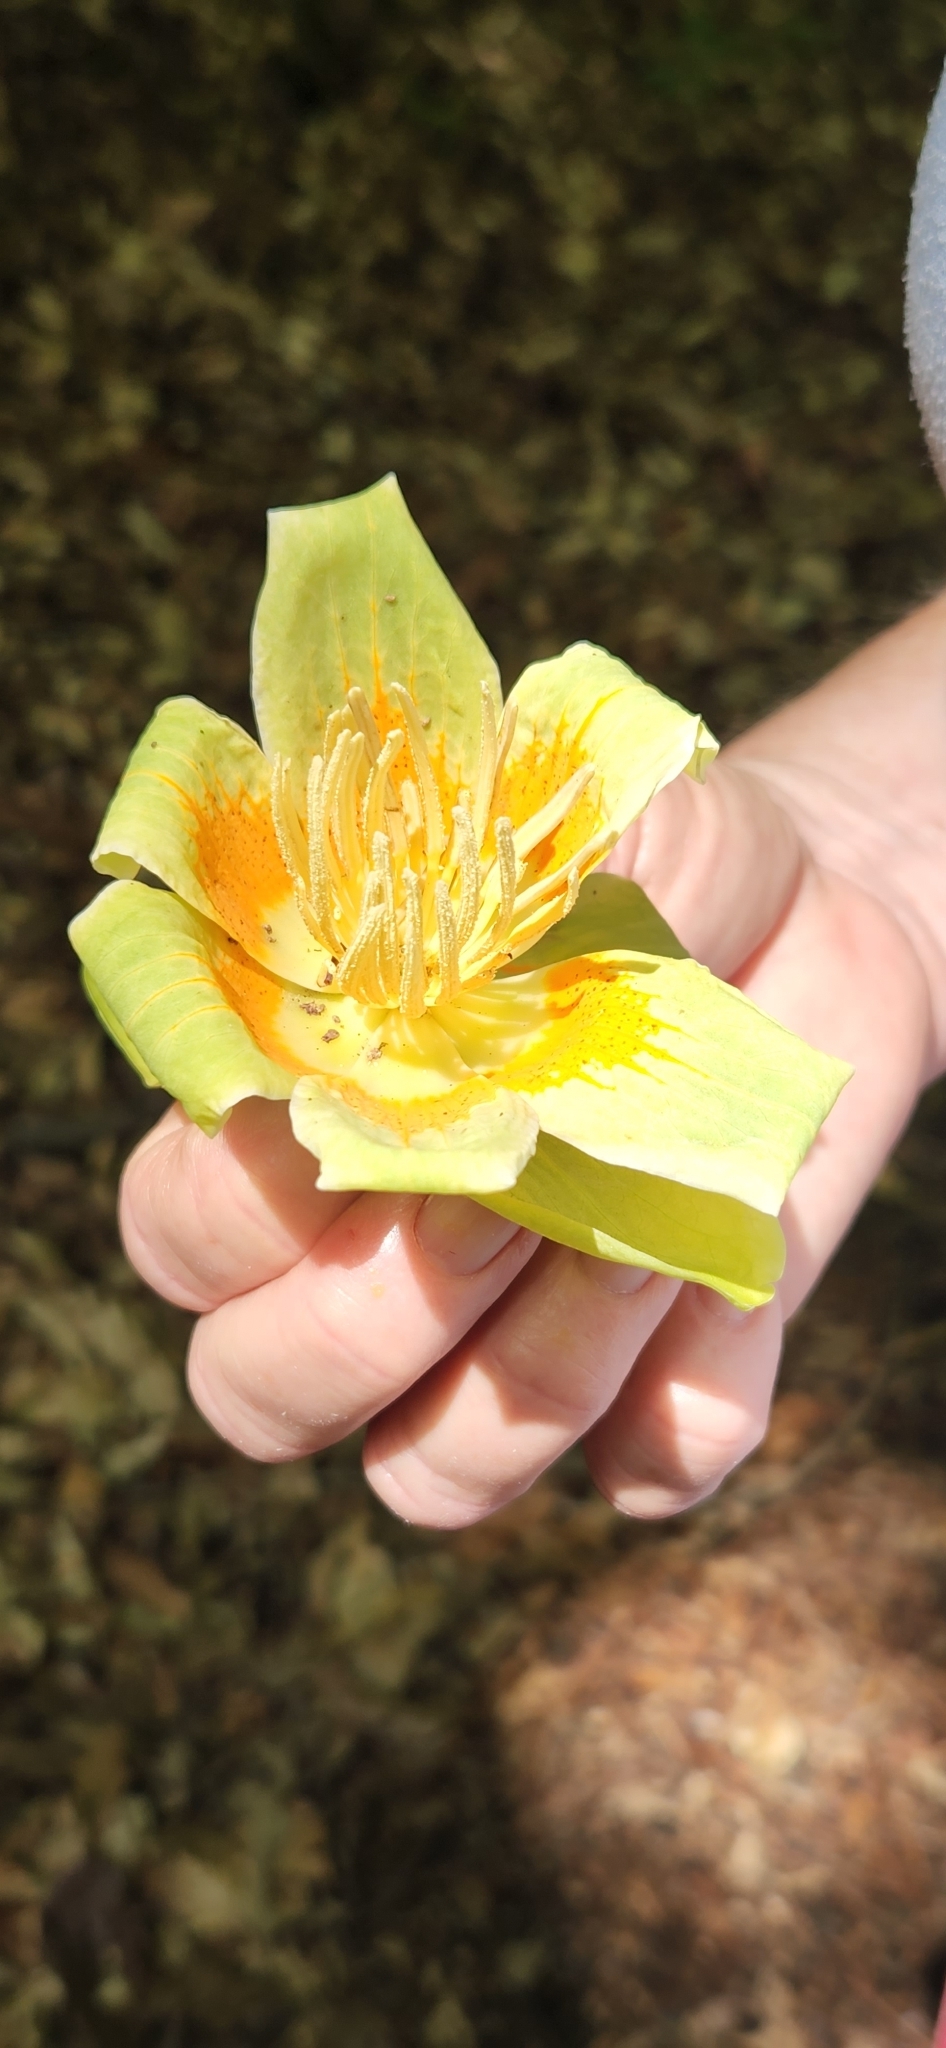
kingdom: Plantae
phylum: Tracheophyta
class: Magnoliopsida
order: Magnoliales
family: Magnoliaceae
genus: Liriodendron
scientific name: Liriodendron tulipifera
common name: Tulip tree
